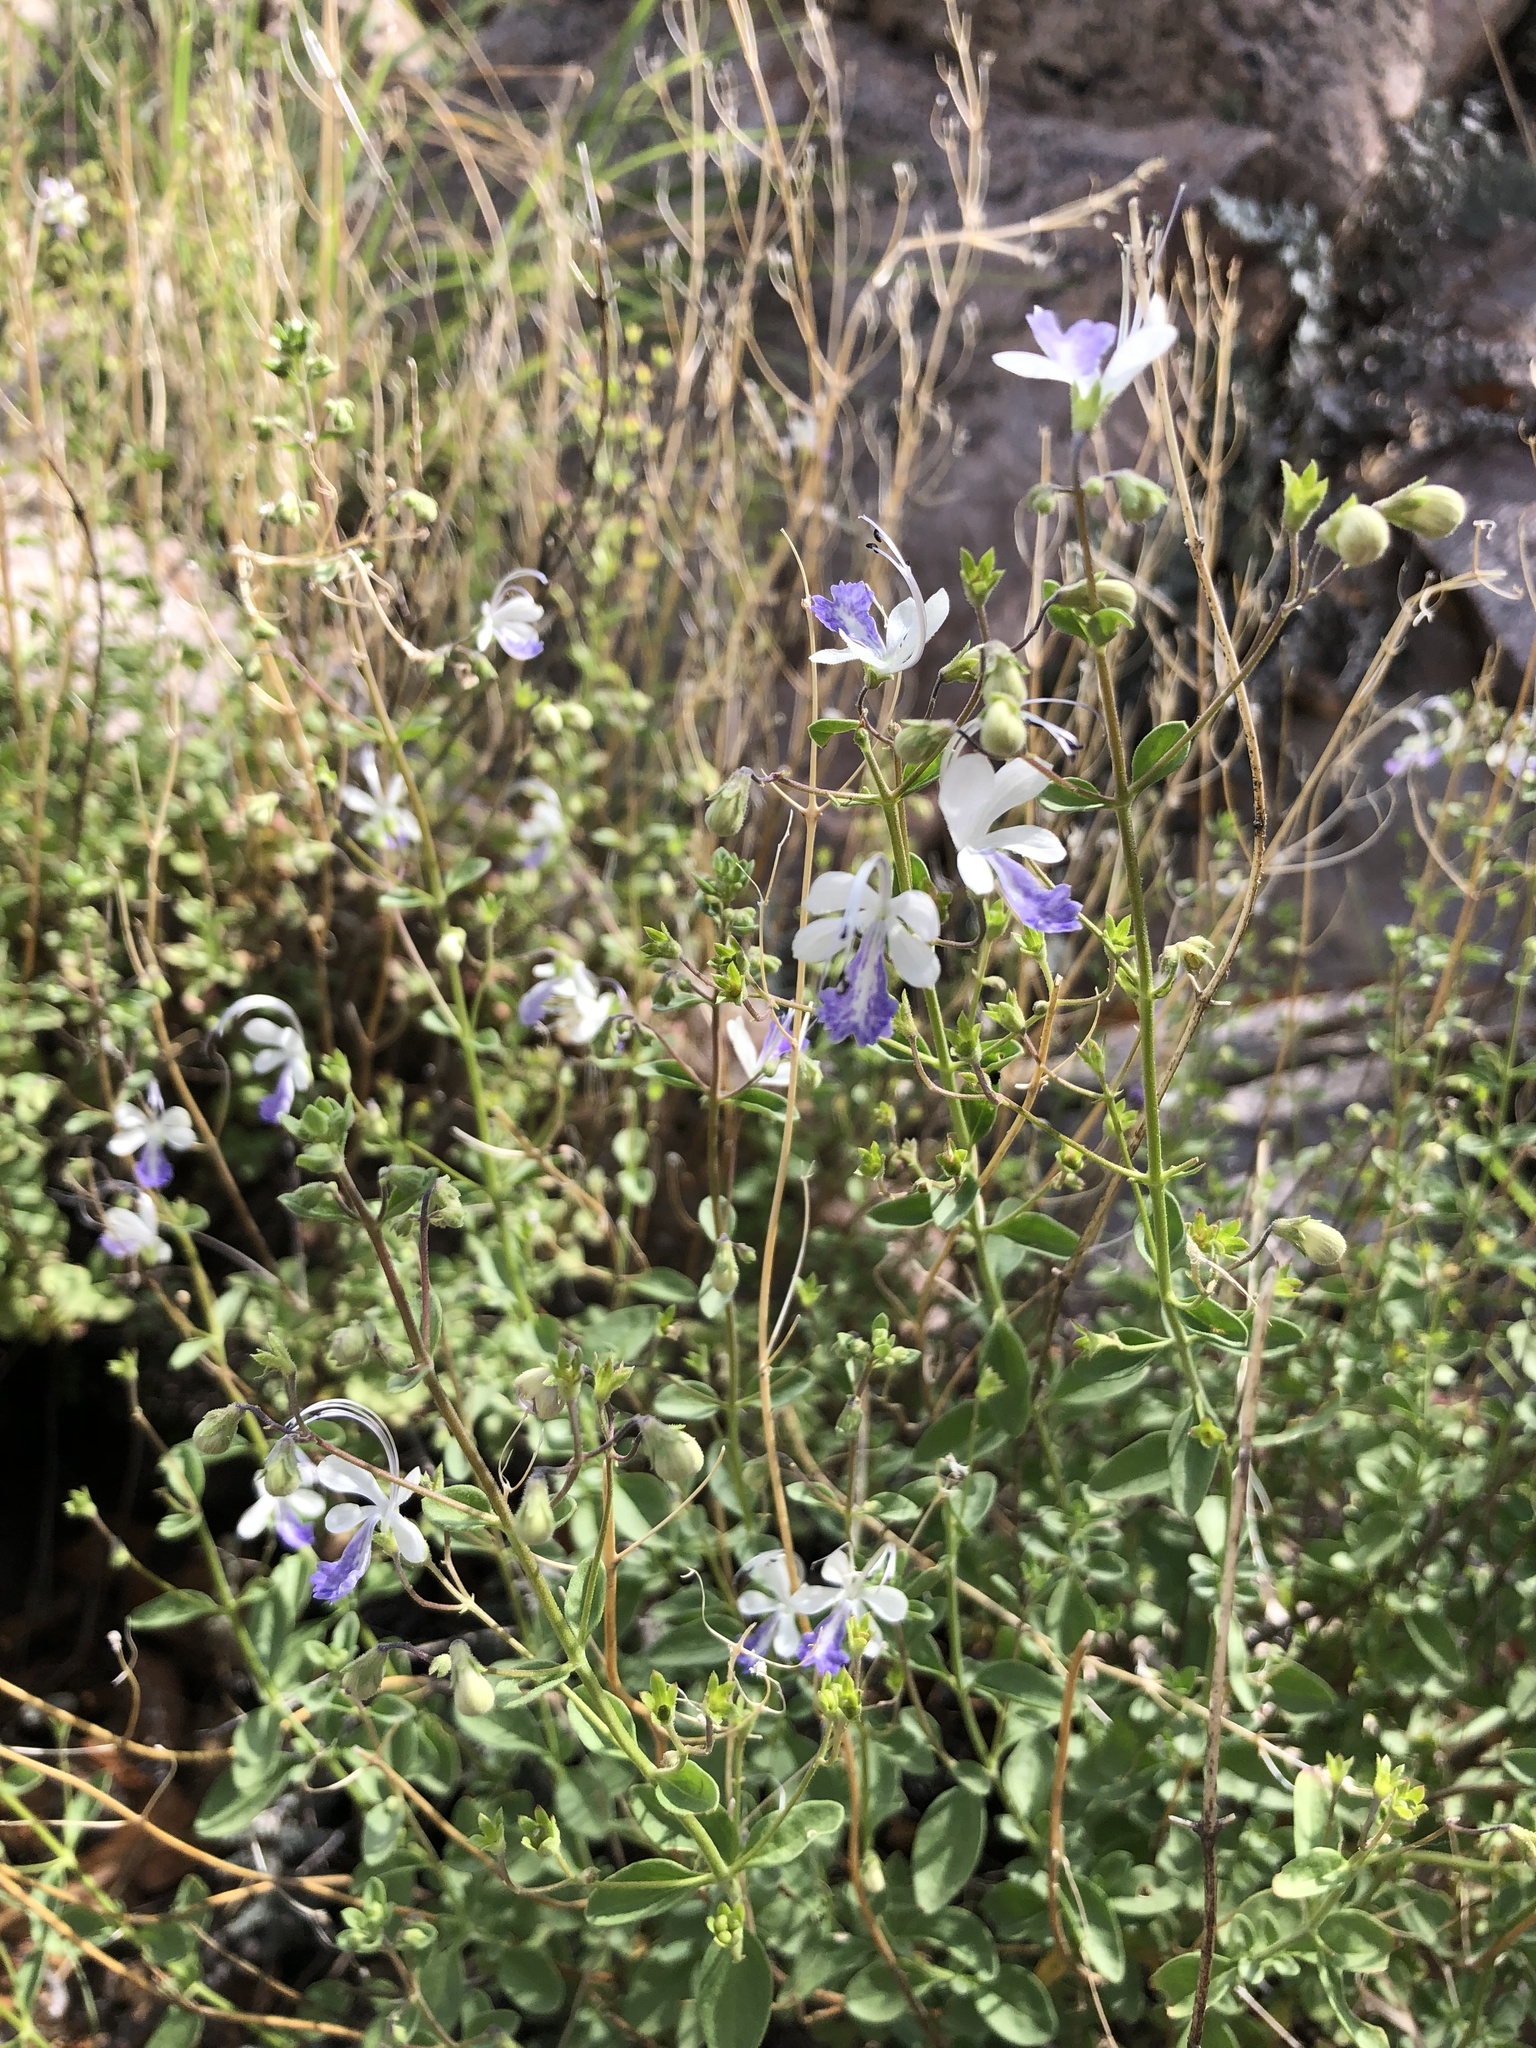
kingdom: Plantae
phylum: Tracheophyta
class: Magnoliopsida
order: Lamiales
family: Lamiaceae
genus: Trichostema
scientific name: Trichostema arizonicum
